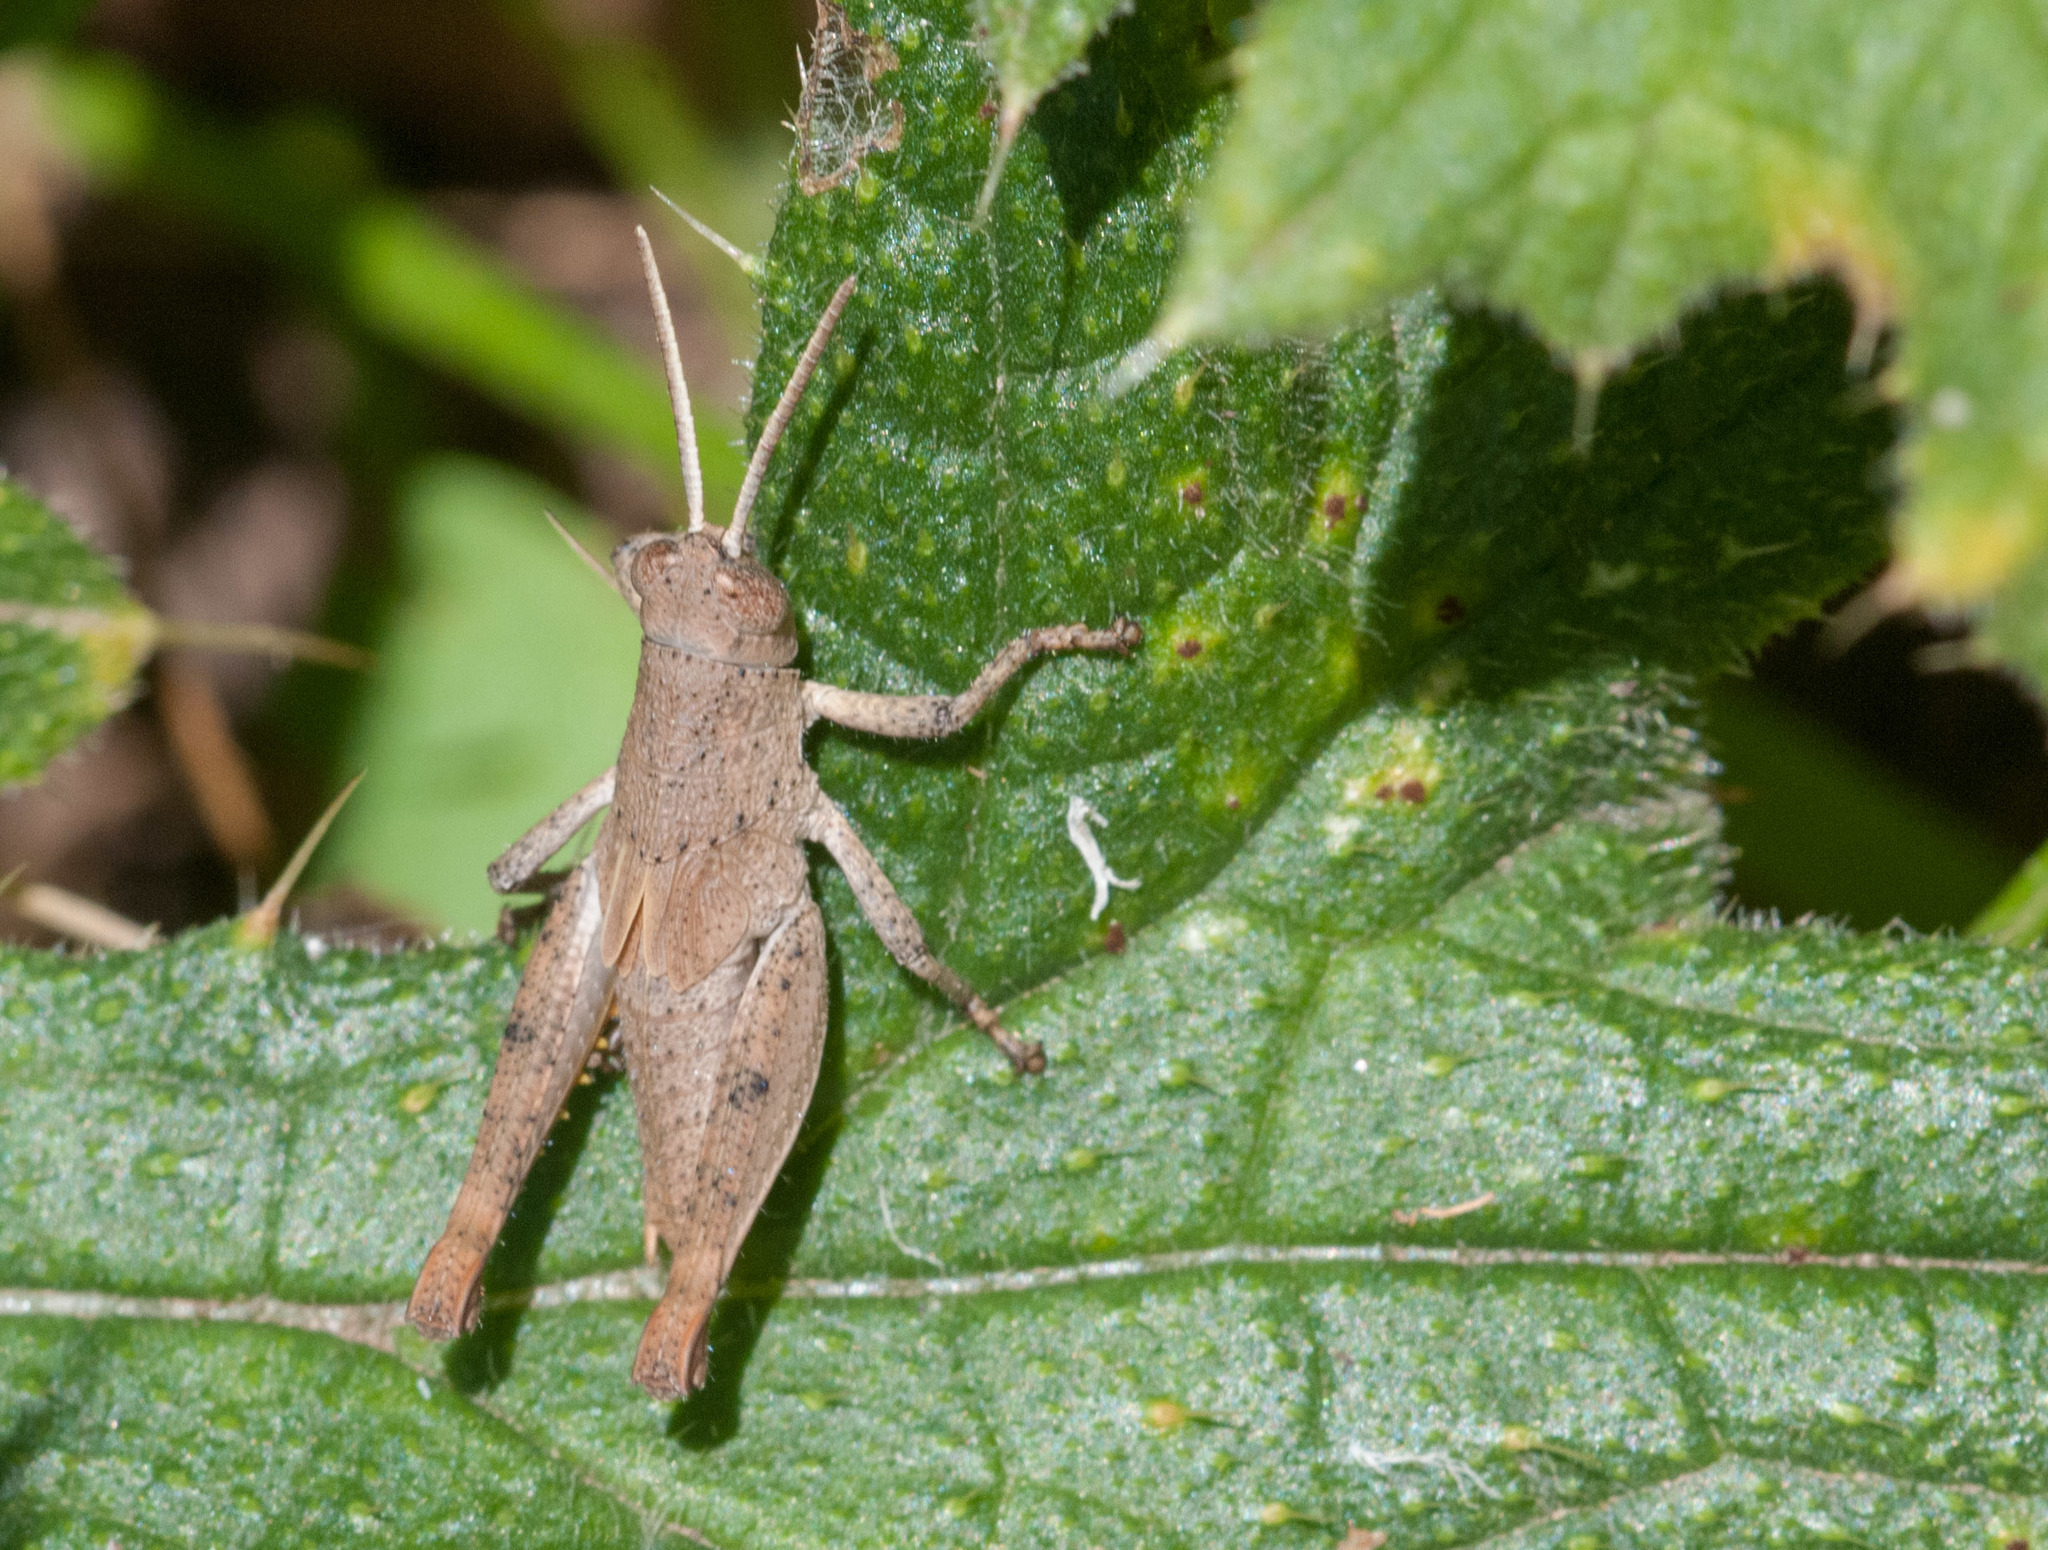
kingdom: Animalia
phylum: Arthropoda
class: Insecta
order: Orthoptera
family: Acrididae
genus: Rhitzala
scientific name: Rhitzala modesta
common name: Short-winged heath grasshopper
